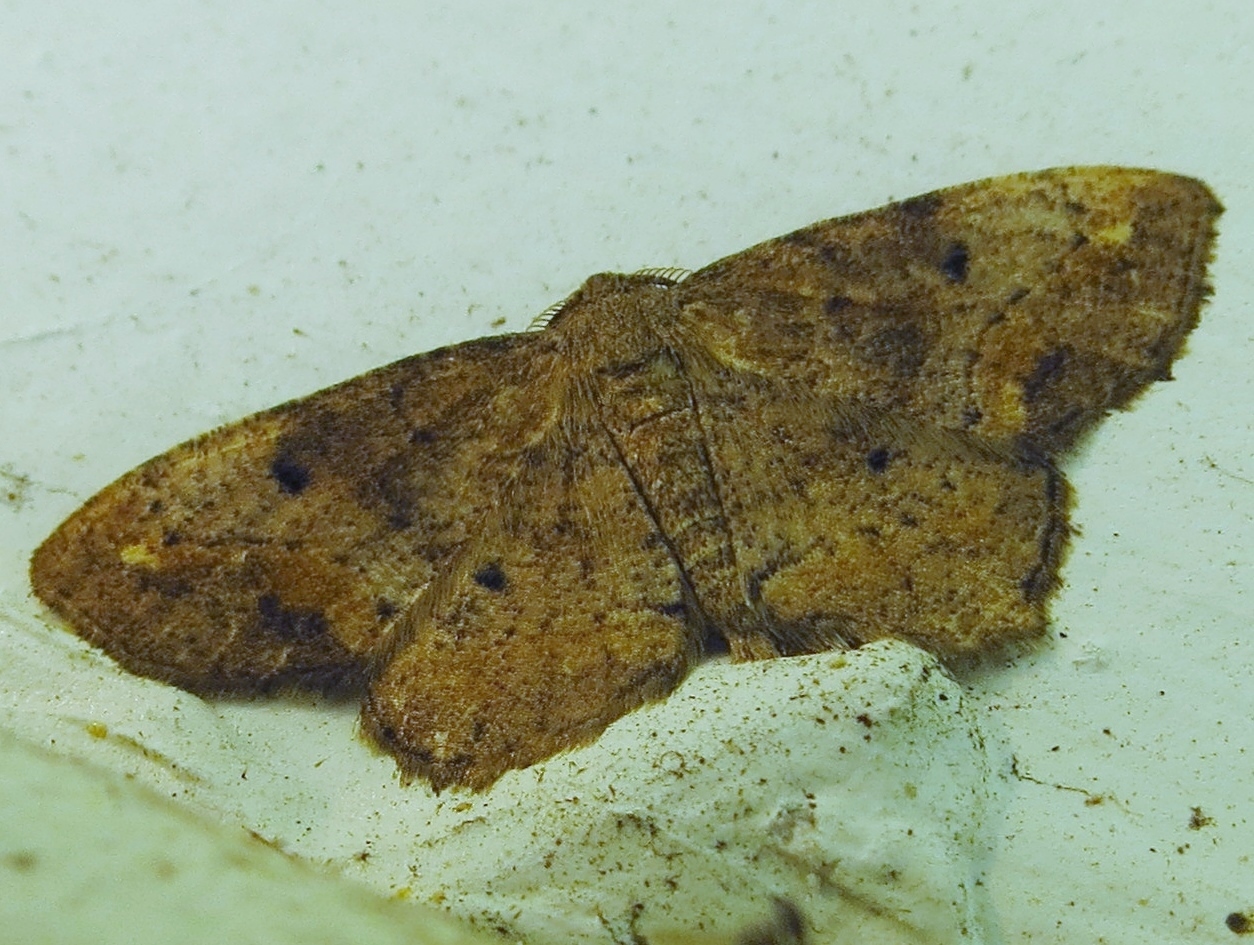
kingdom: Animalia
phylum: Arthropoda
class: Insecta
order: Lepidoptera
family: Geometridae
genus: Hypagyrtis
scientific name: Hypagyrtis unipunctata
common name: One-spotted variant
